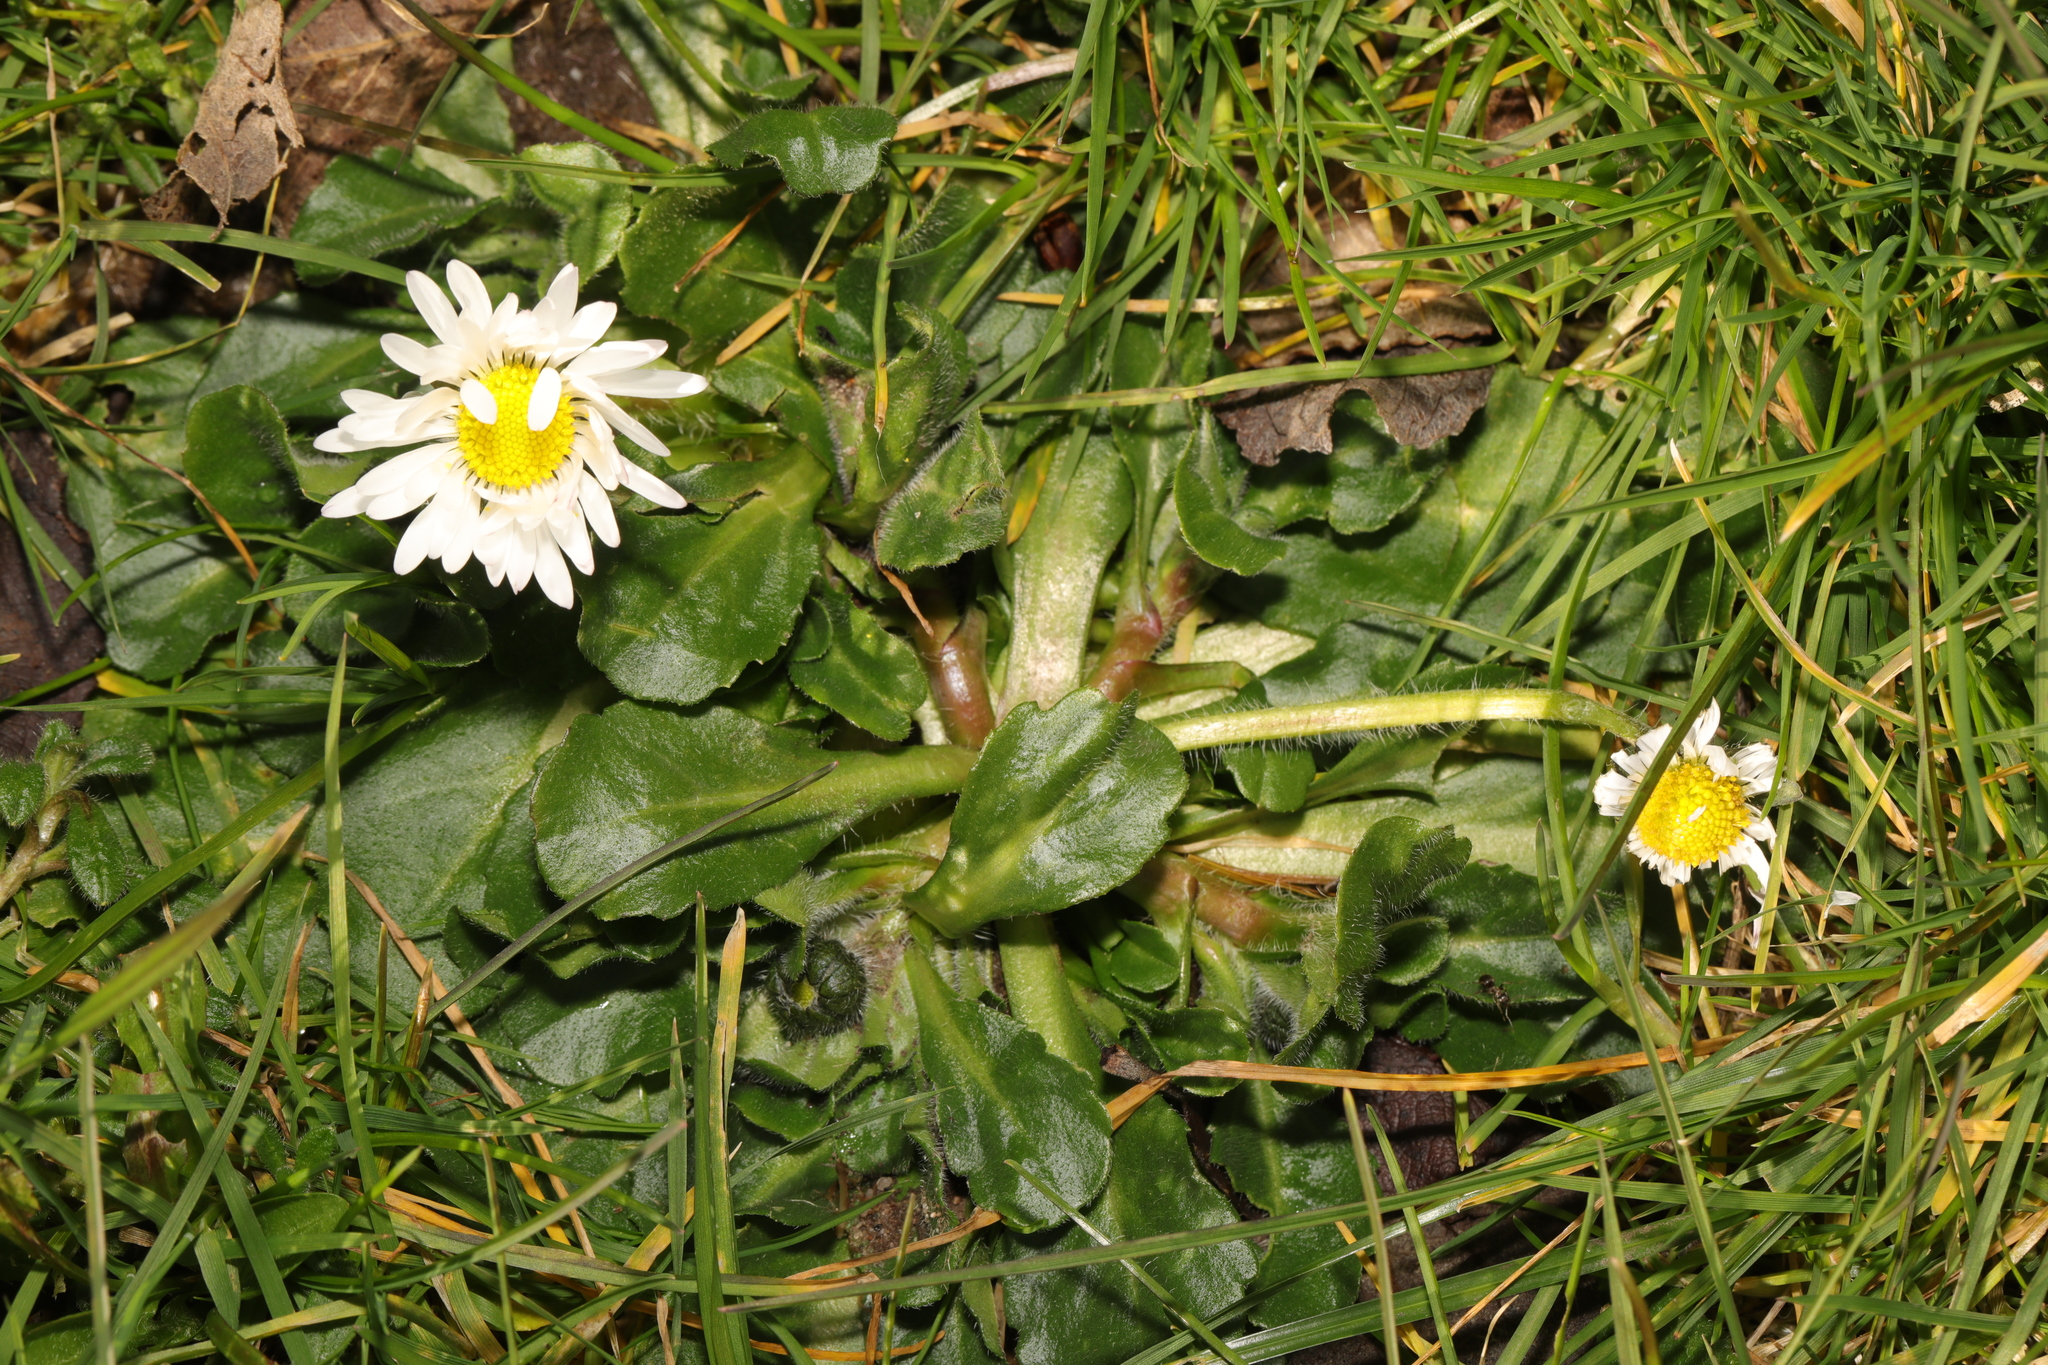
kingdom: Plantae
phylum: Tracheophyta
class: Magnoliopsida
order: Asterales
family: Asteraceae
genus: Bellis
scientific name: Bellis perennis
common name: Lawndaisy
